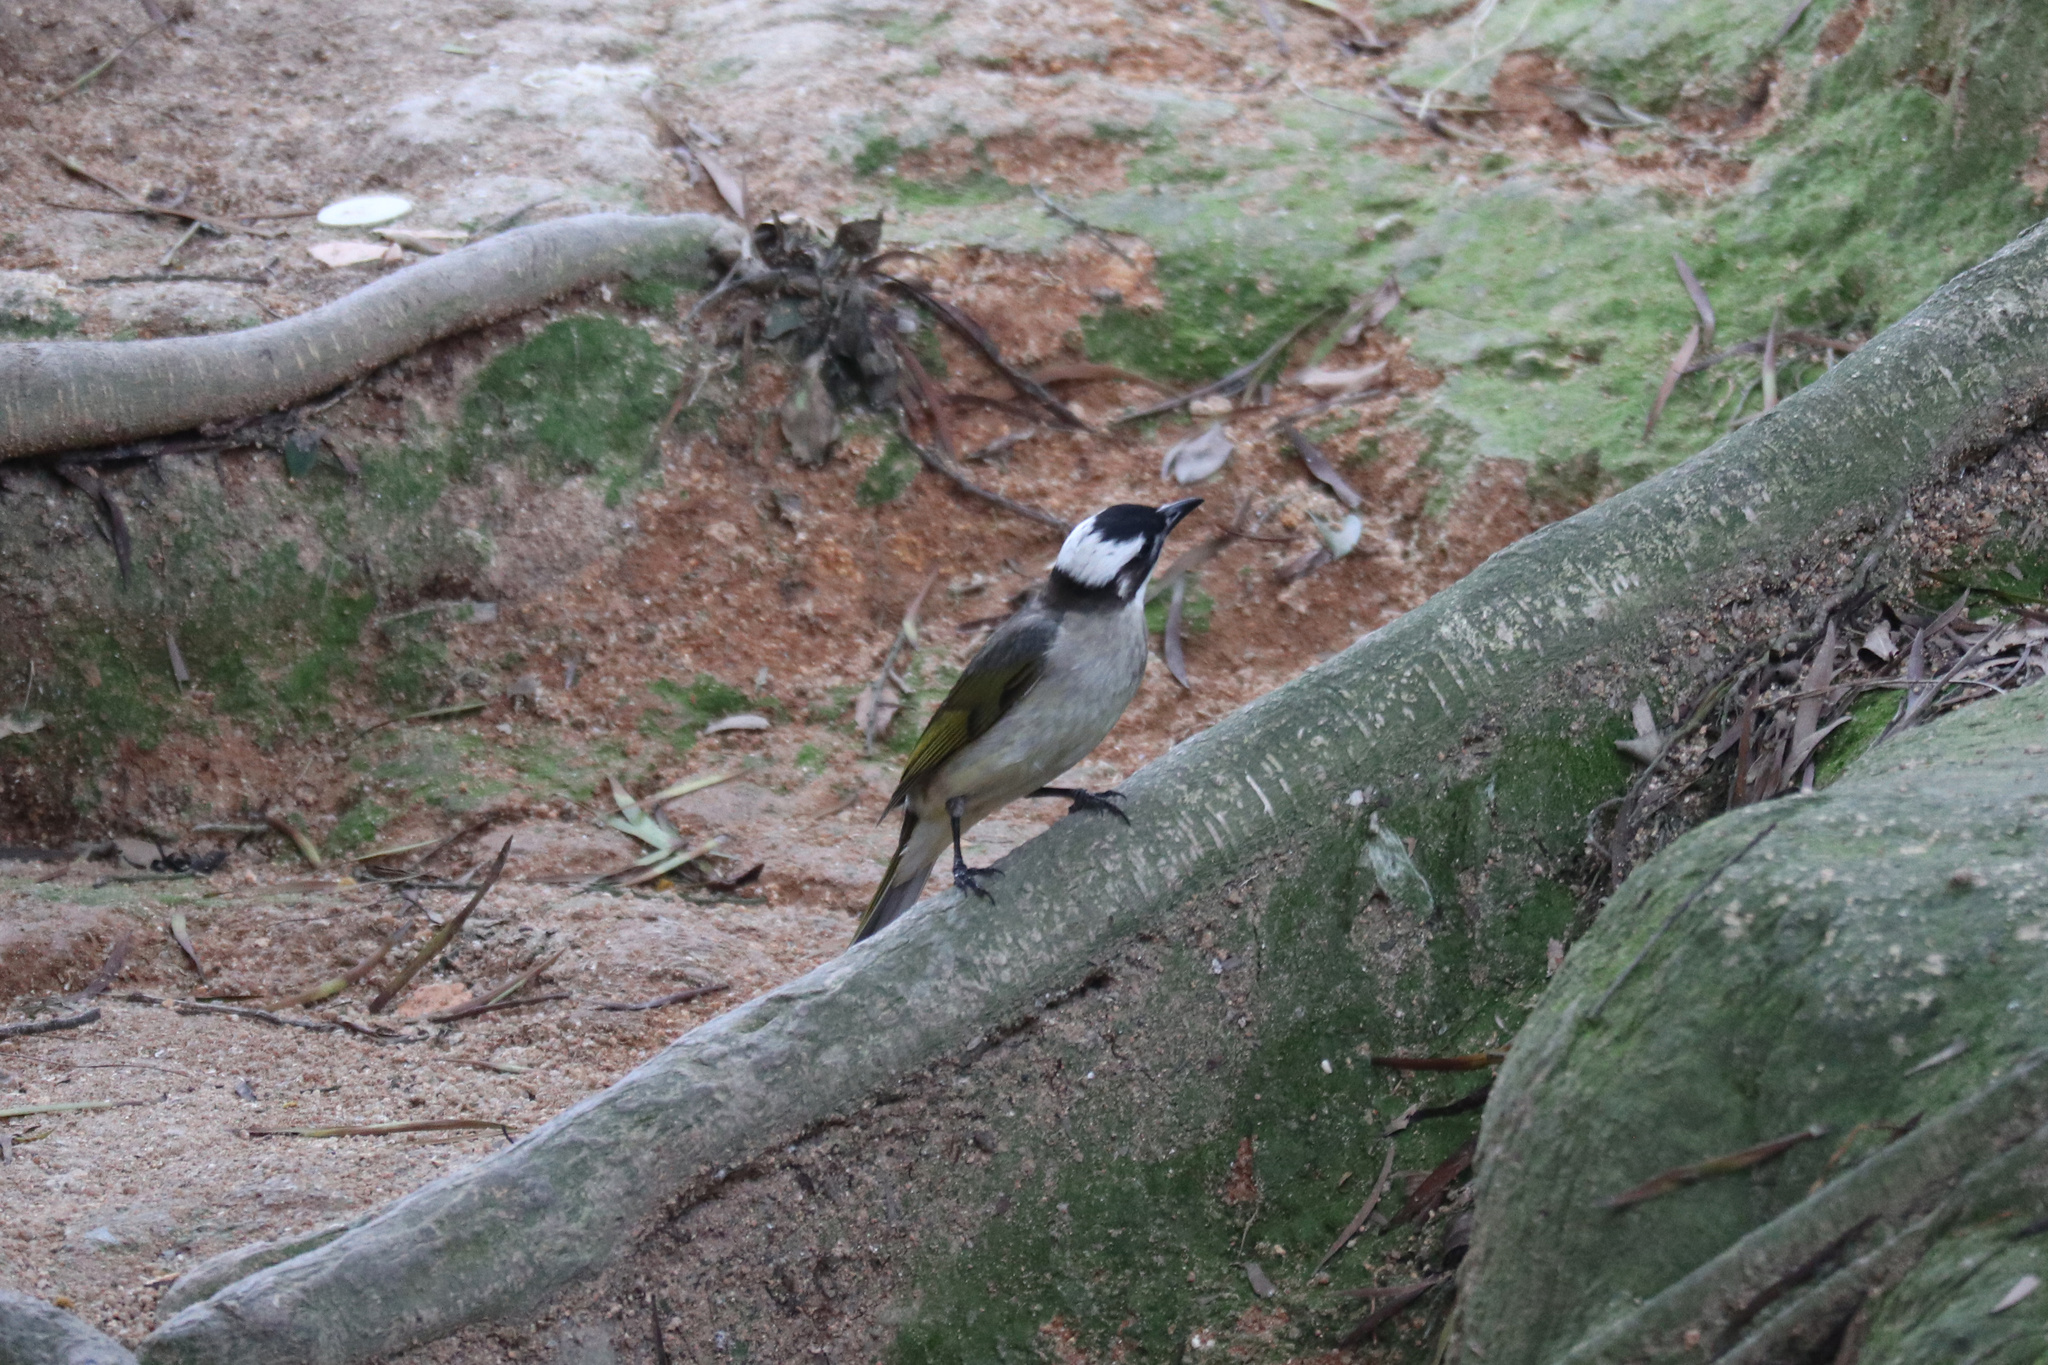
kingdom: Animalia
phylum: Chordata
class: Aves
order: Passeriformes
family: Pycnonotidae
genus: Pycnonotus
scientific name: Pycnonotus sinensis
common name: Light-vented bulbul
